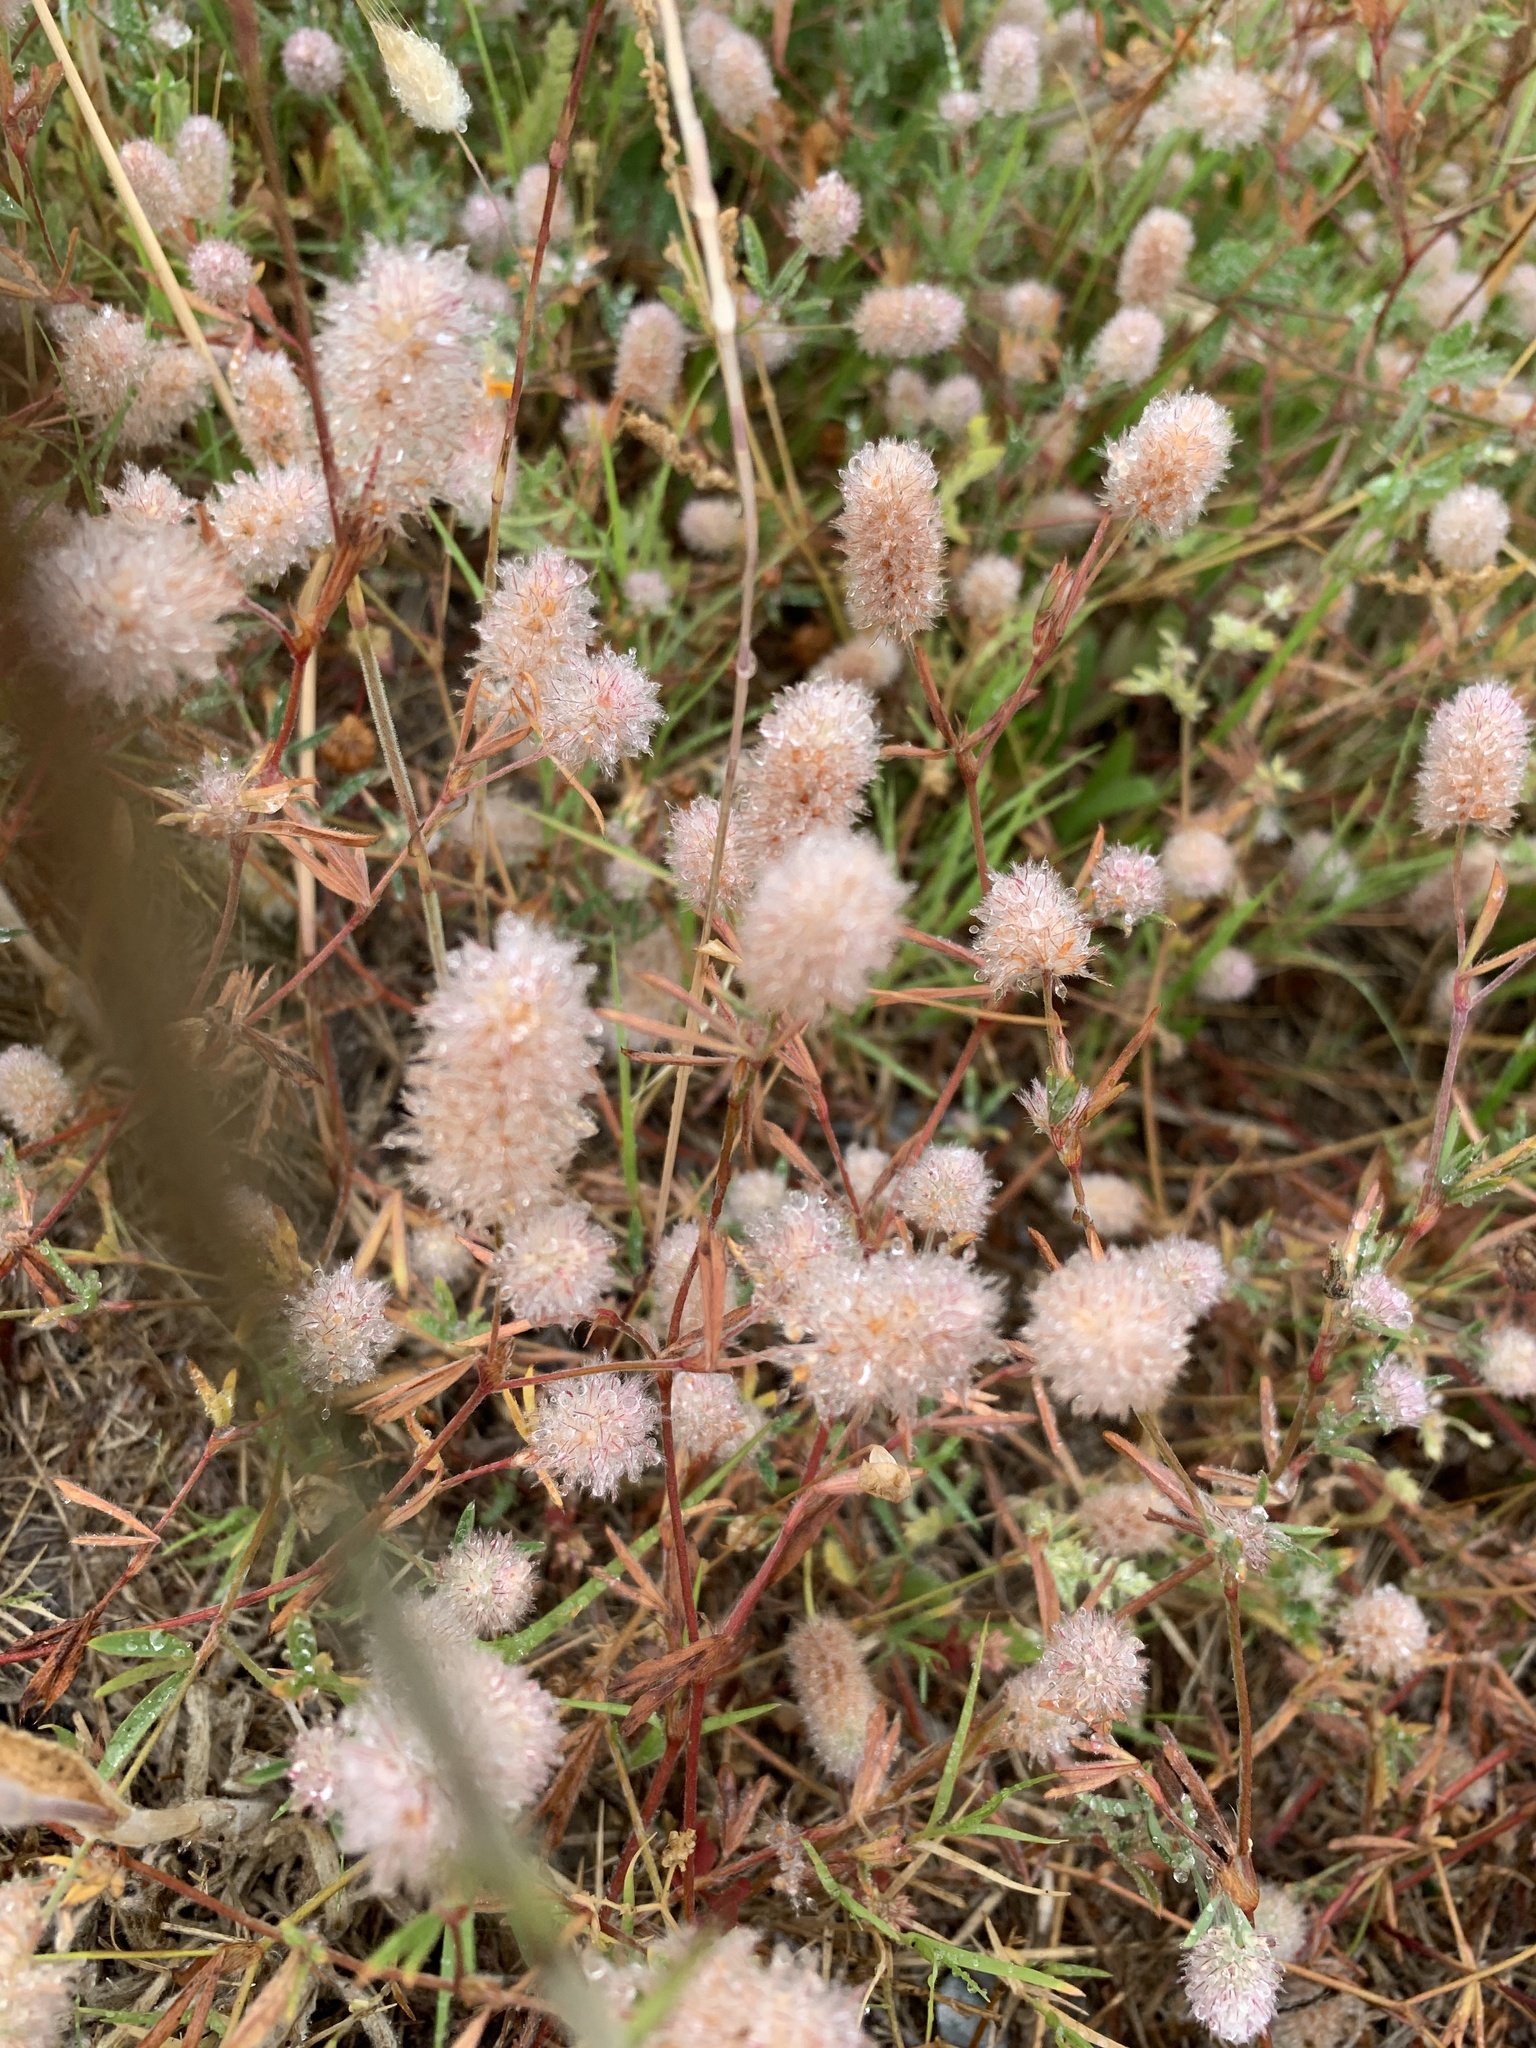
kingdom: Plantae
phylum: Tracheophyta
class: Magnoliopsida
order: Fabales
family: Fabaceae
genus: Trifolium
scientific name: Trifolium arvense
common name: Hare's-foot clover
